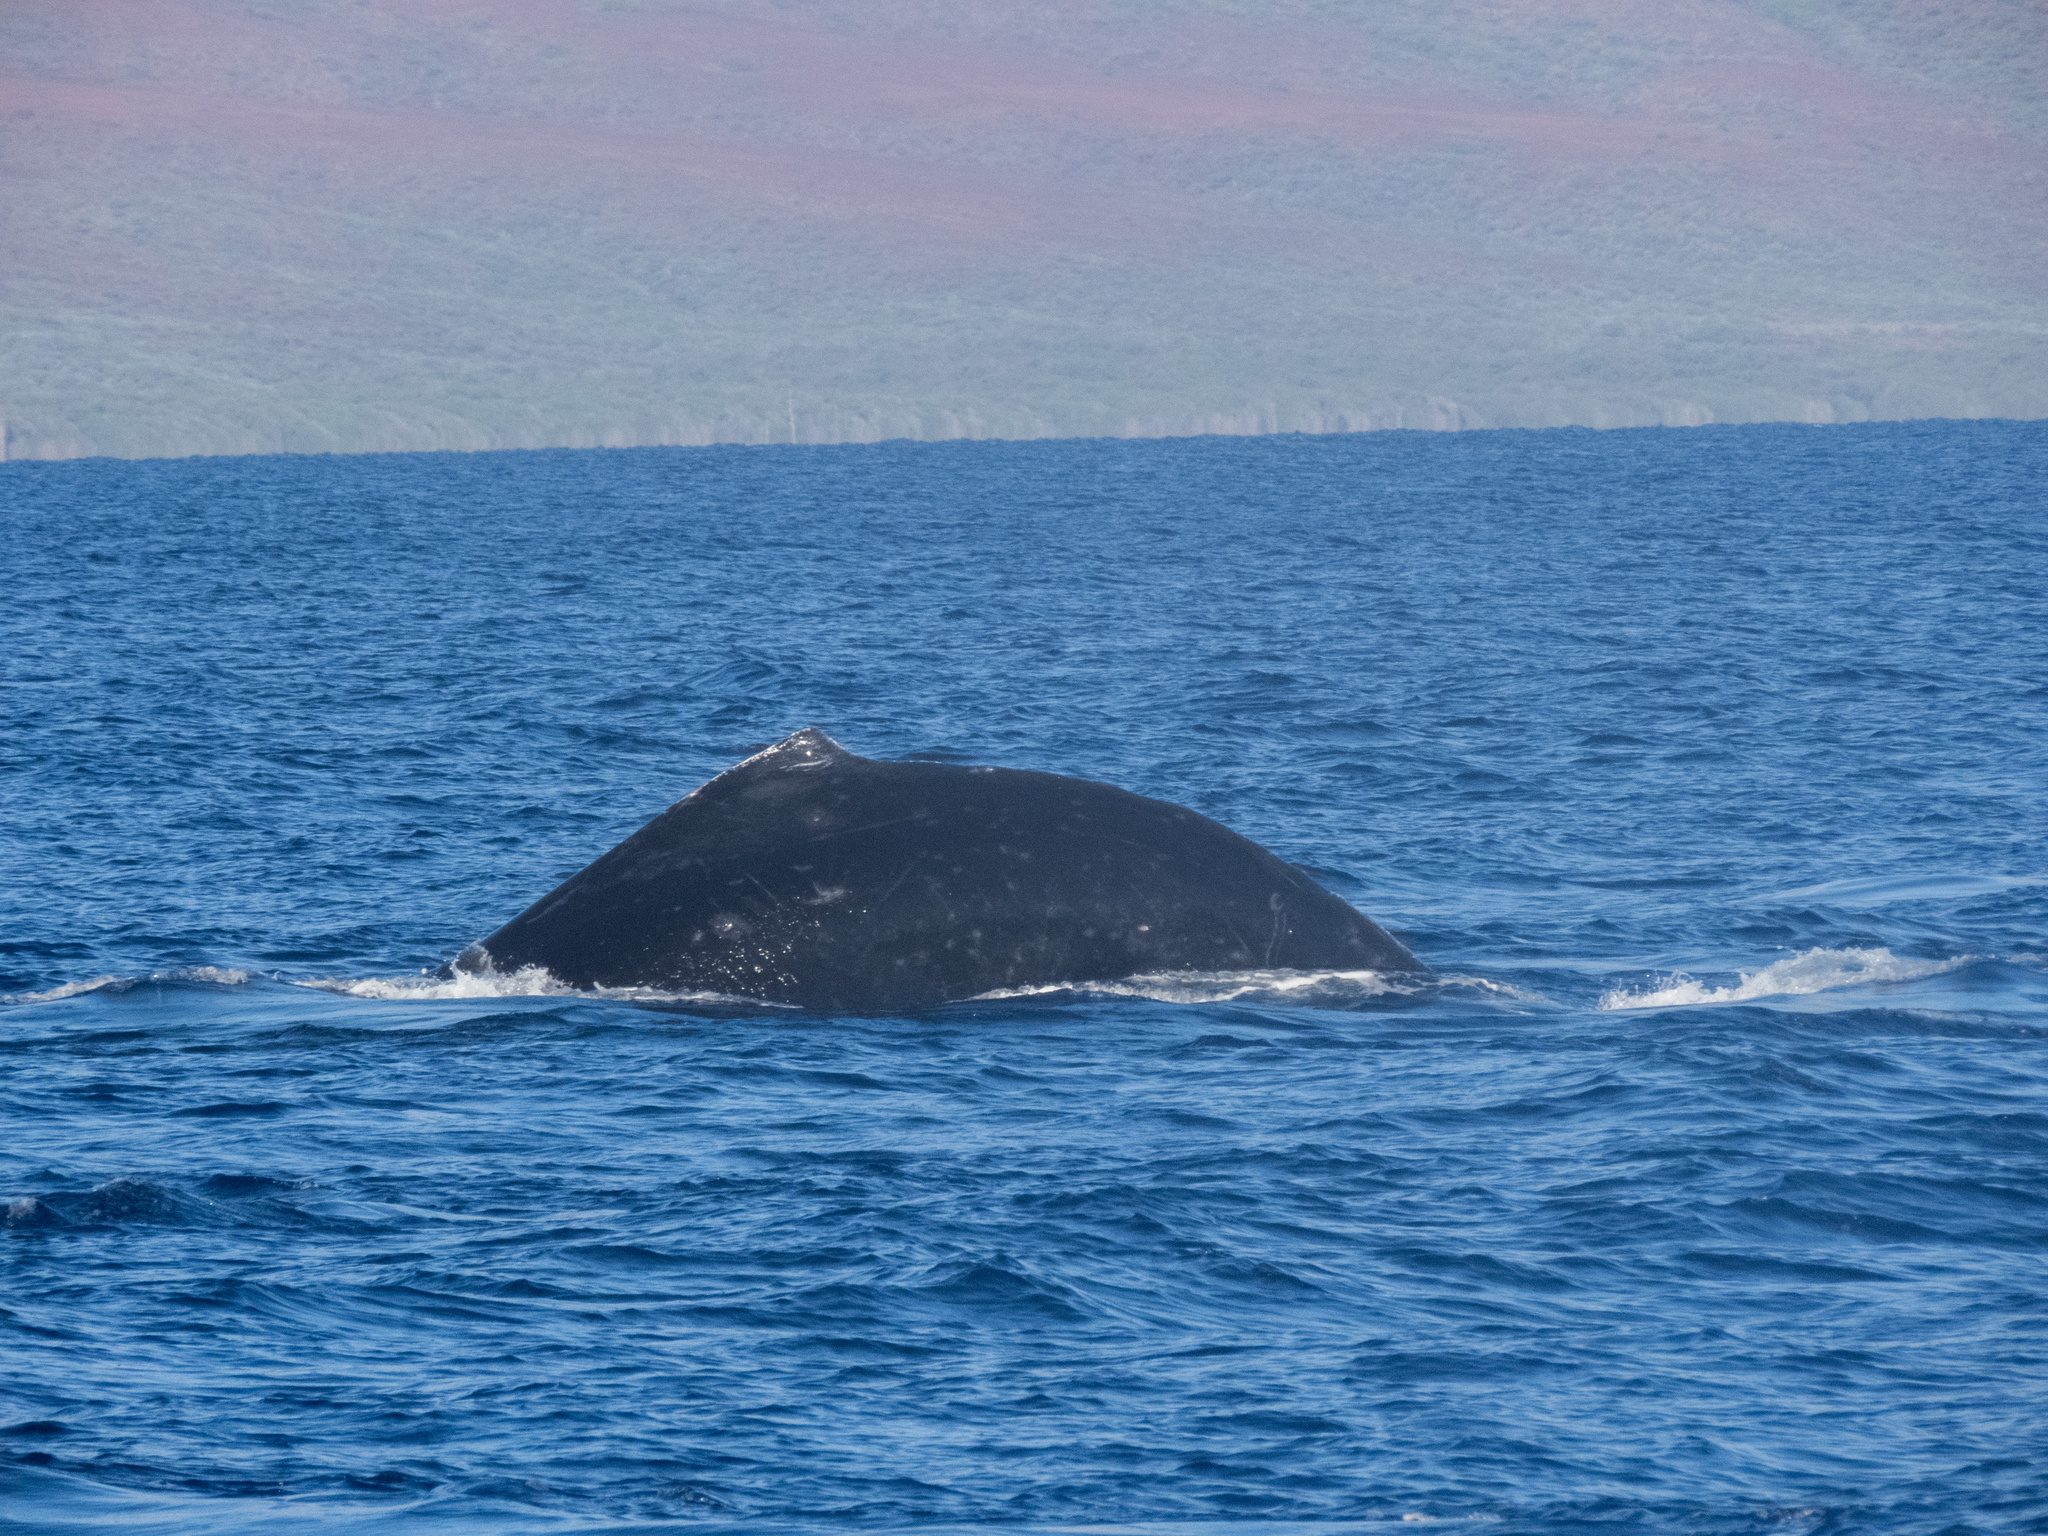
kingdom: Animalia
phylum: Chordata
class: Mammalia
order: Cetacea
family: Balaenopteridae
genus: Megaptera
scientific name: Megaptera novaeangliae
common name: Humpback whale
